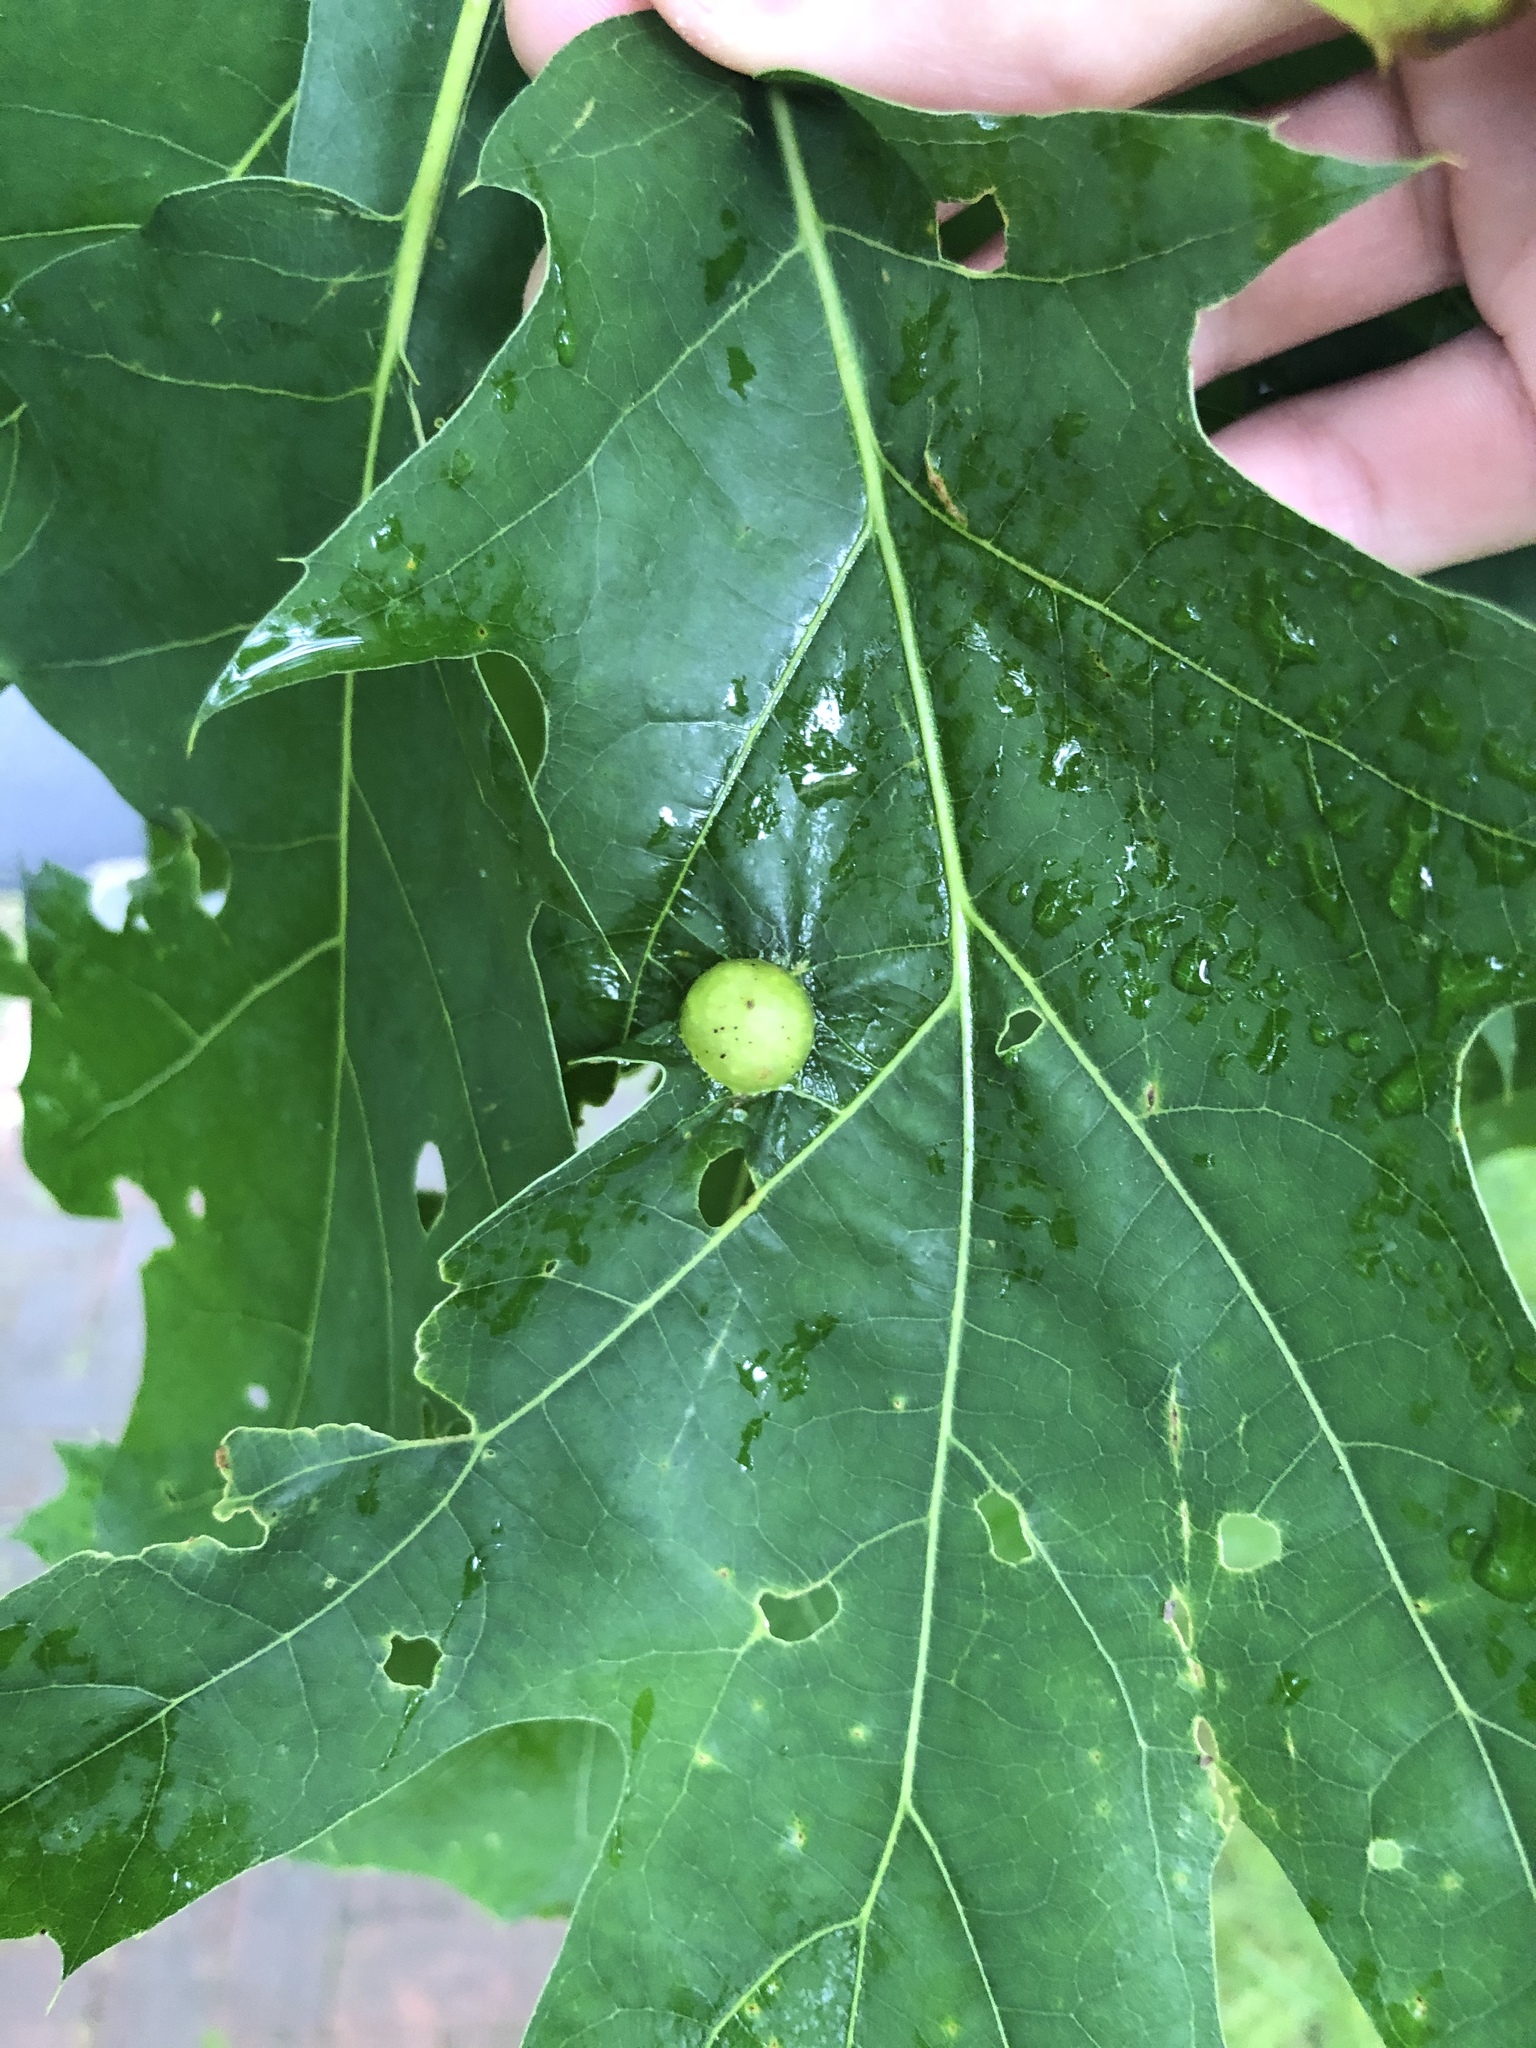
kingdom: Animalia
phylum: Arthropoda
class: Insecta
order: Hymenoptera
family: Cynipidae
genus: Amphibolips
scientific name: Amphibolips
